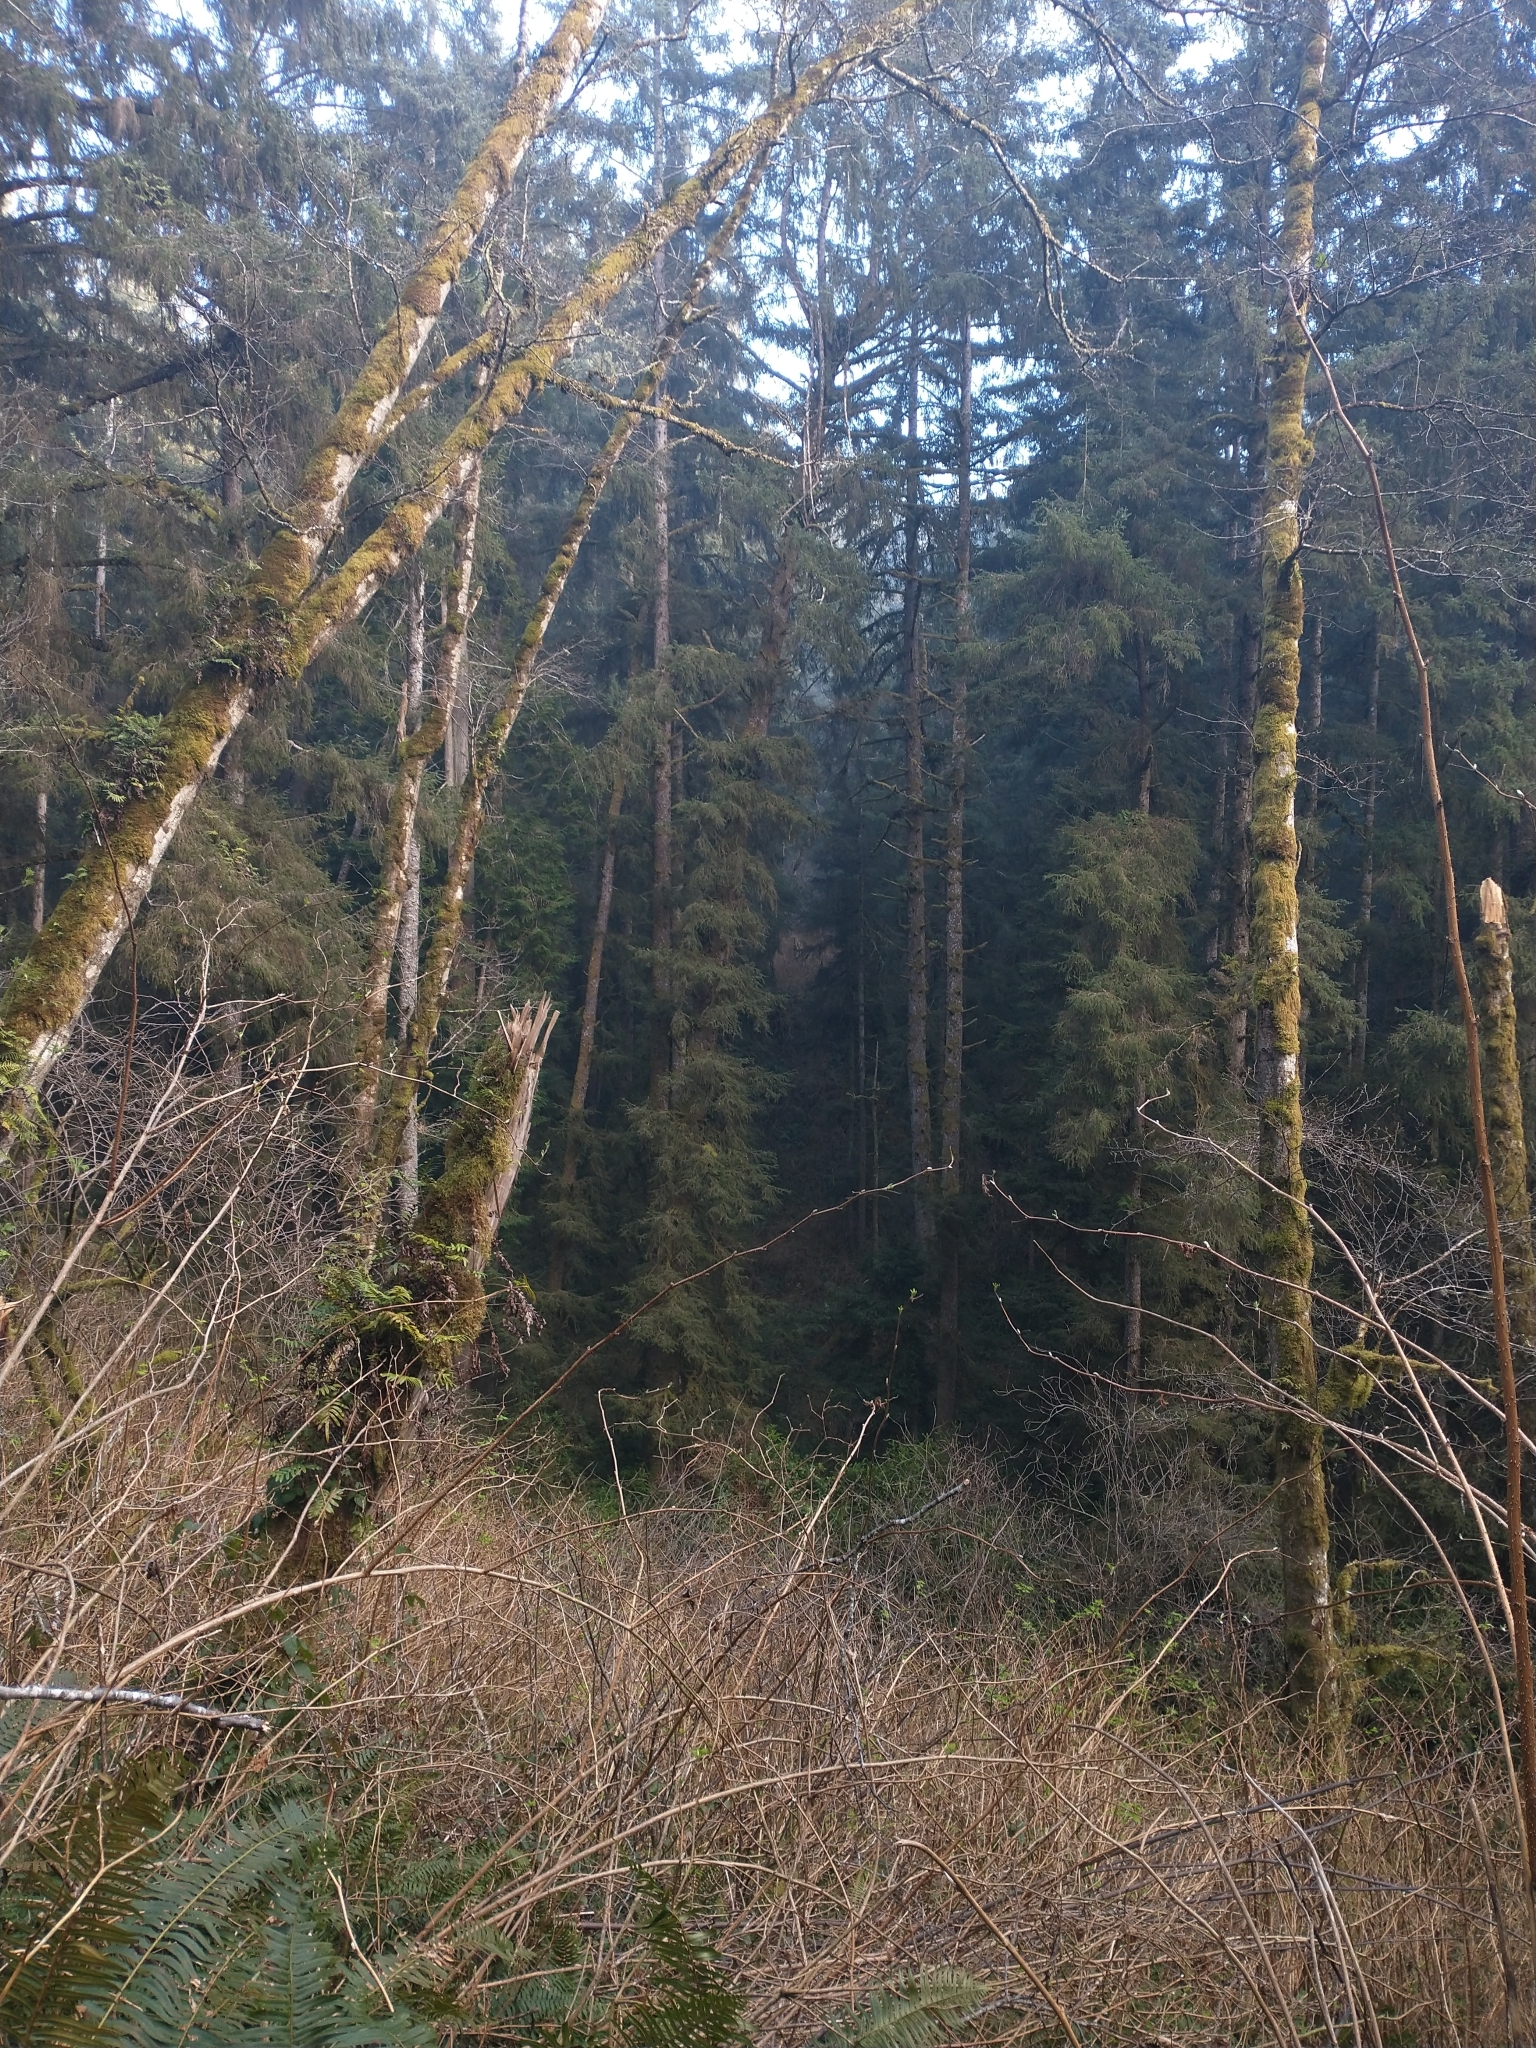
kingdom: Plantae
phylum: Tracheophyta
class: Pinopsida
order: Pinales
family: Pinaceae
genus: Picea
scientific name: Picea sitchensis
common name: Sitka spruce
